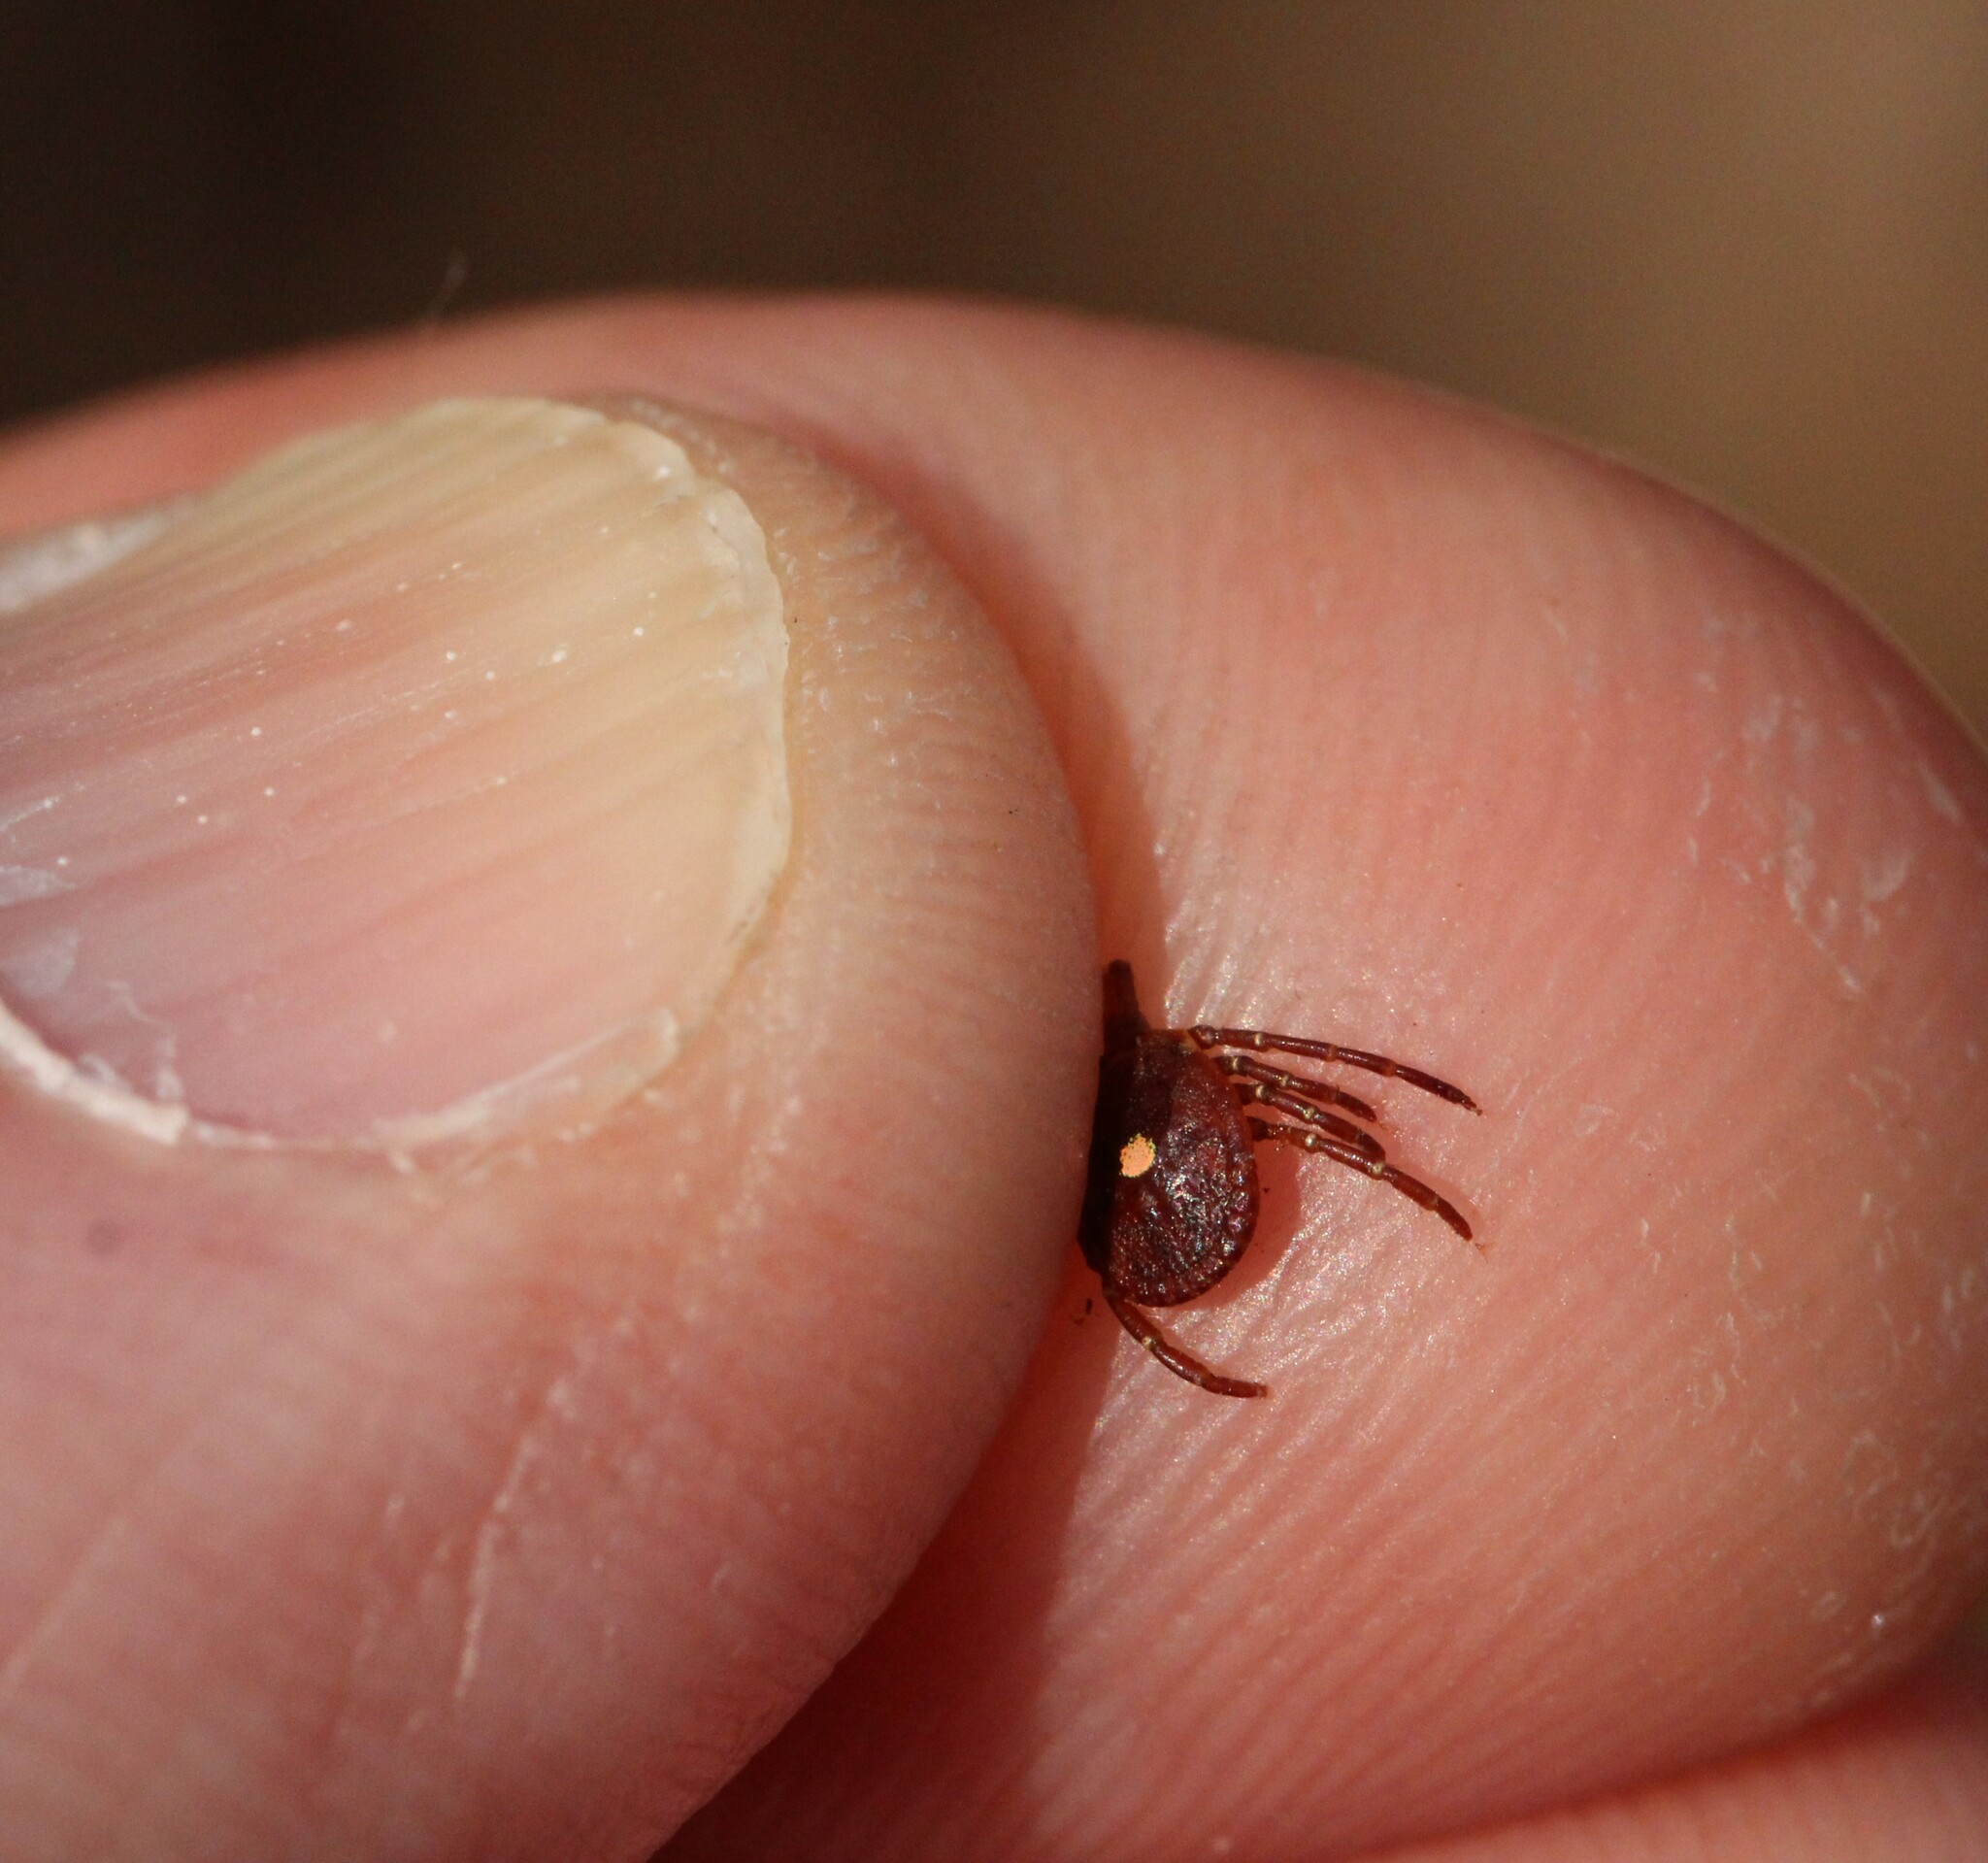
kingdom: Animalia
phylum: Arthropoda
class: Arachnida
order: Ixodida
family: Ixodidae
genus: Amblyomma
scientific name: Amblyomma americanum
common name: Lone star tick
